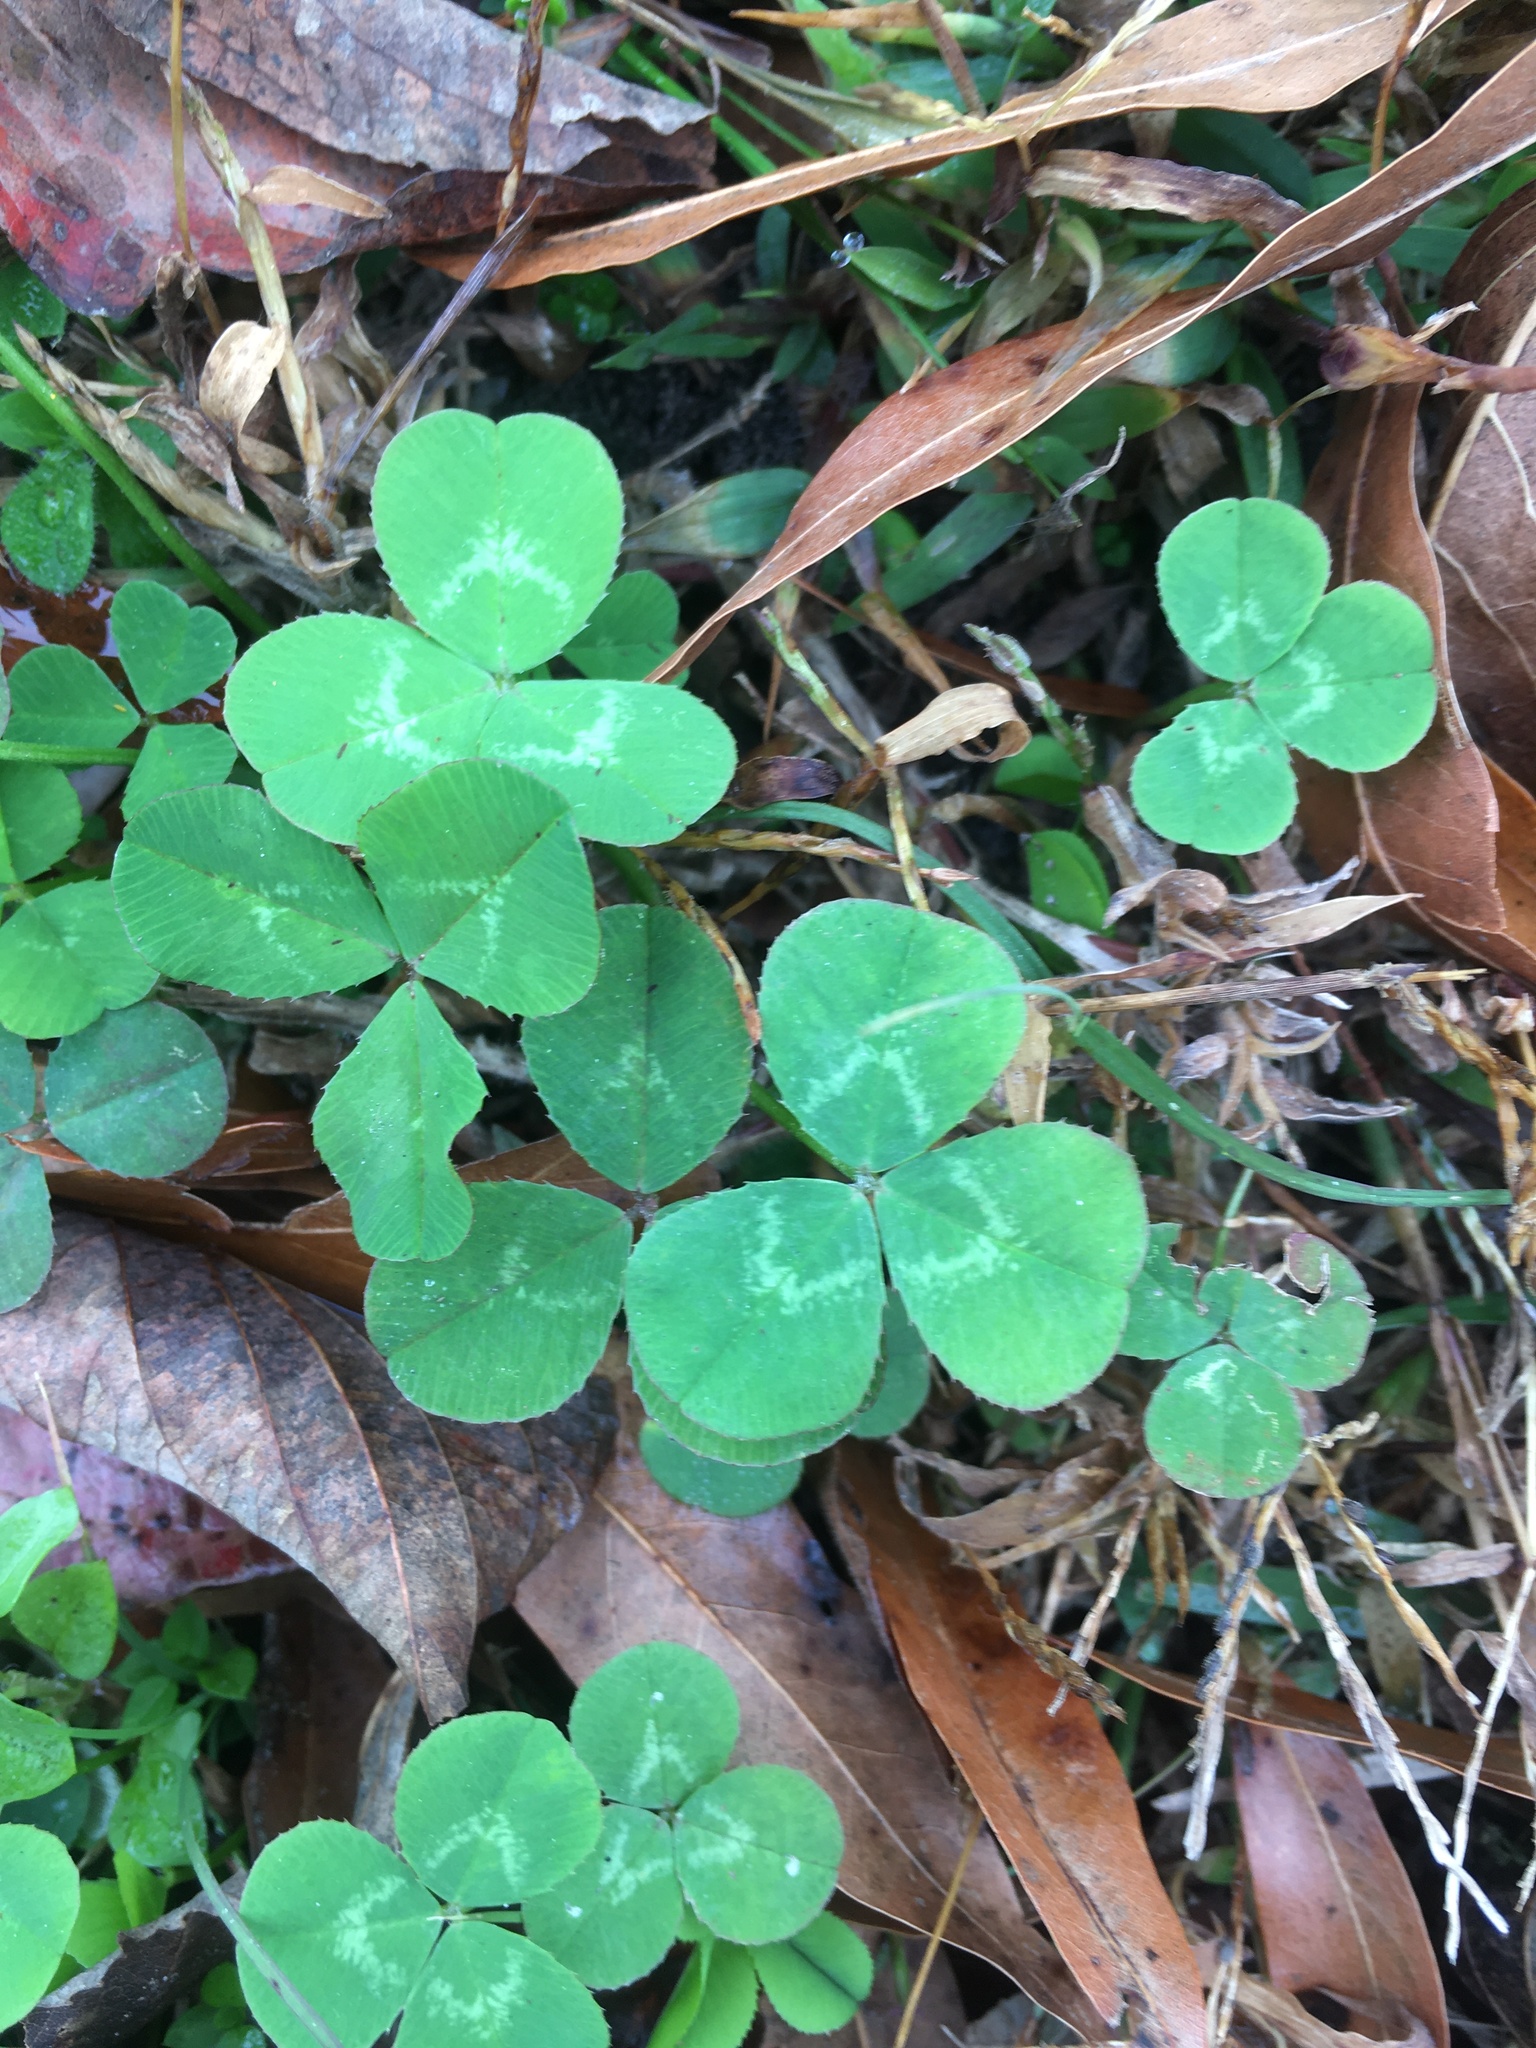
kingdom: Plantae
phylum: Tracheophyta
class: Magnoliopsida
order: Fabales
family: Fabaceae
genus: Trifolium
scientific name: Trifolium repens
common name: White clover
